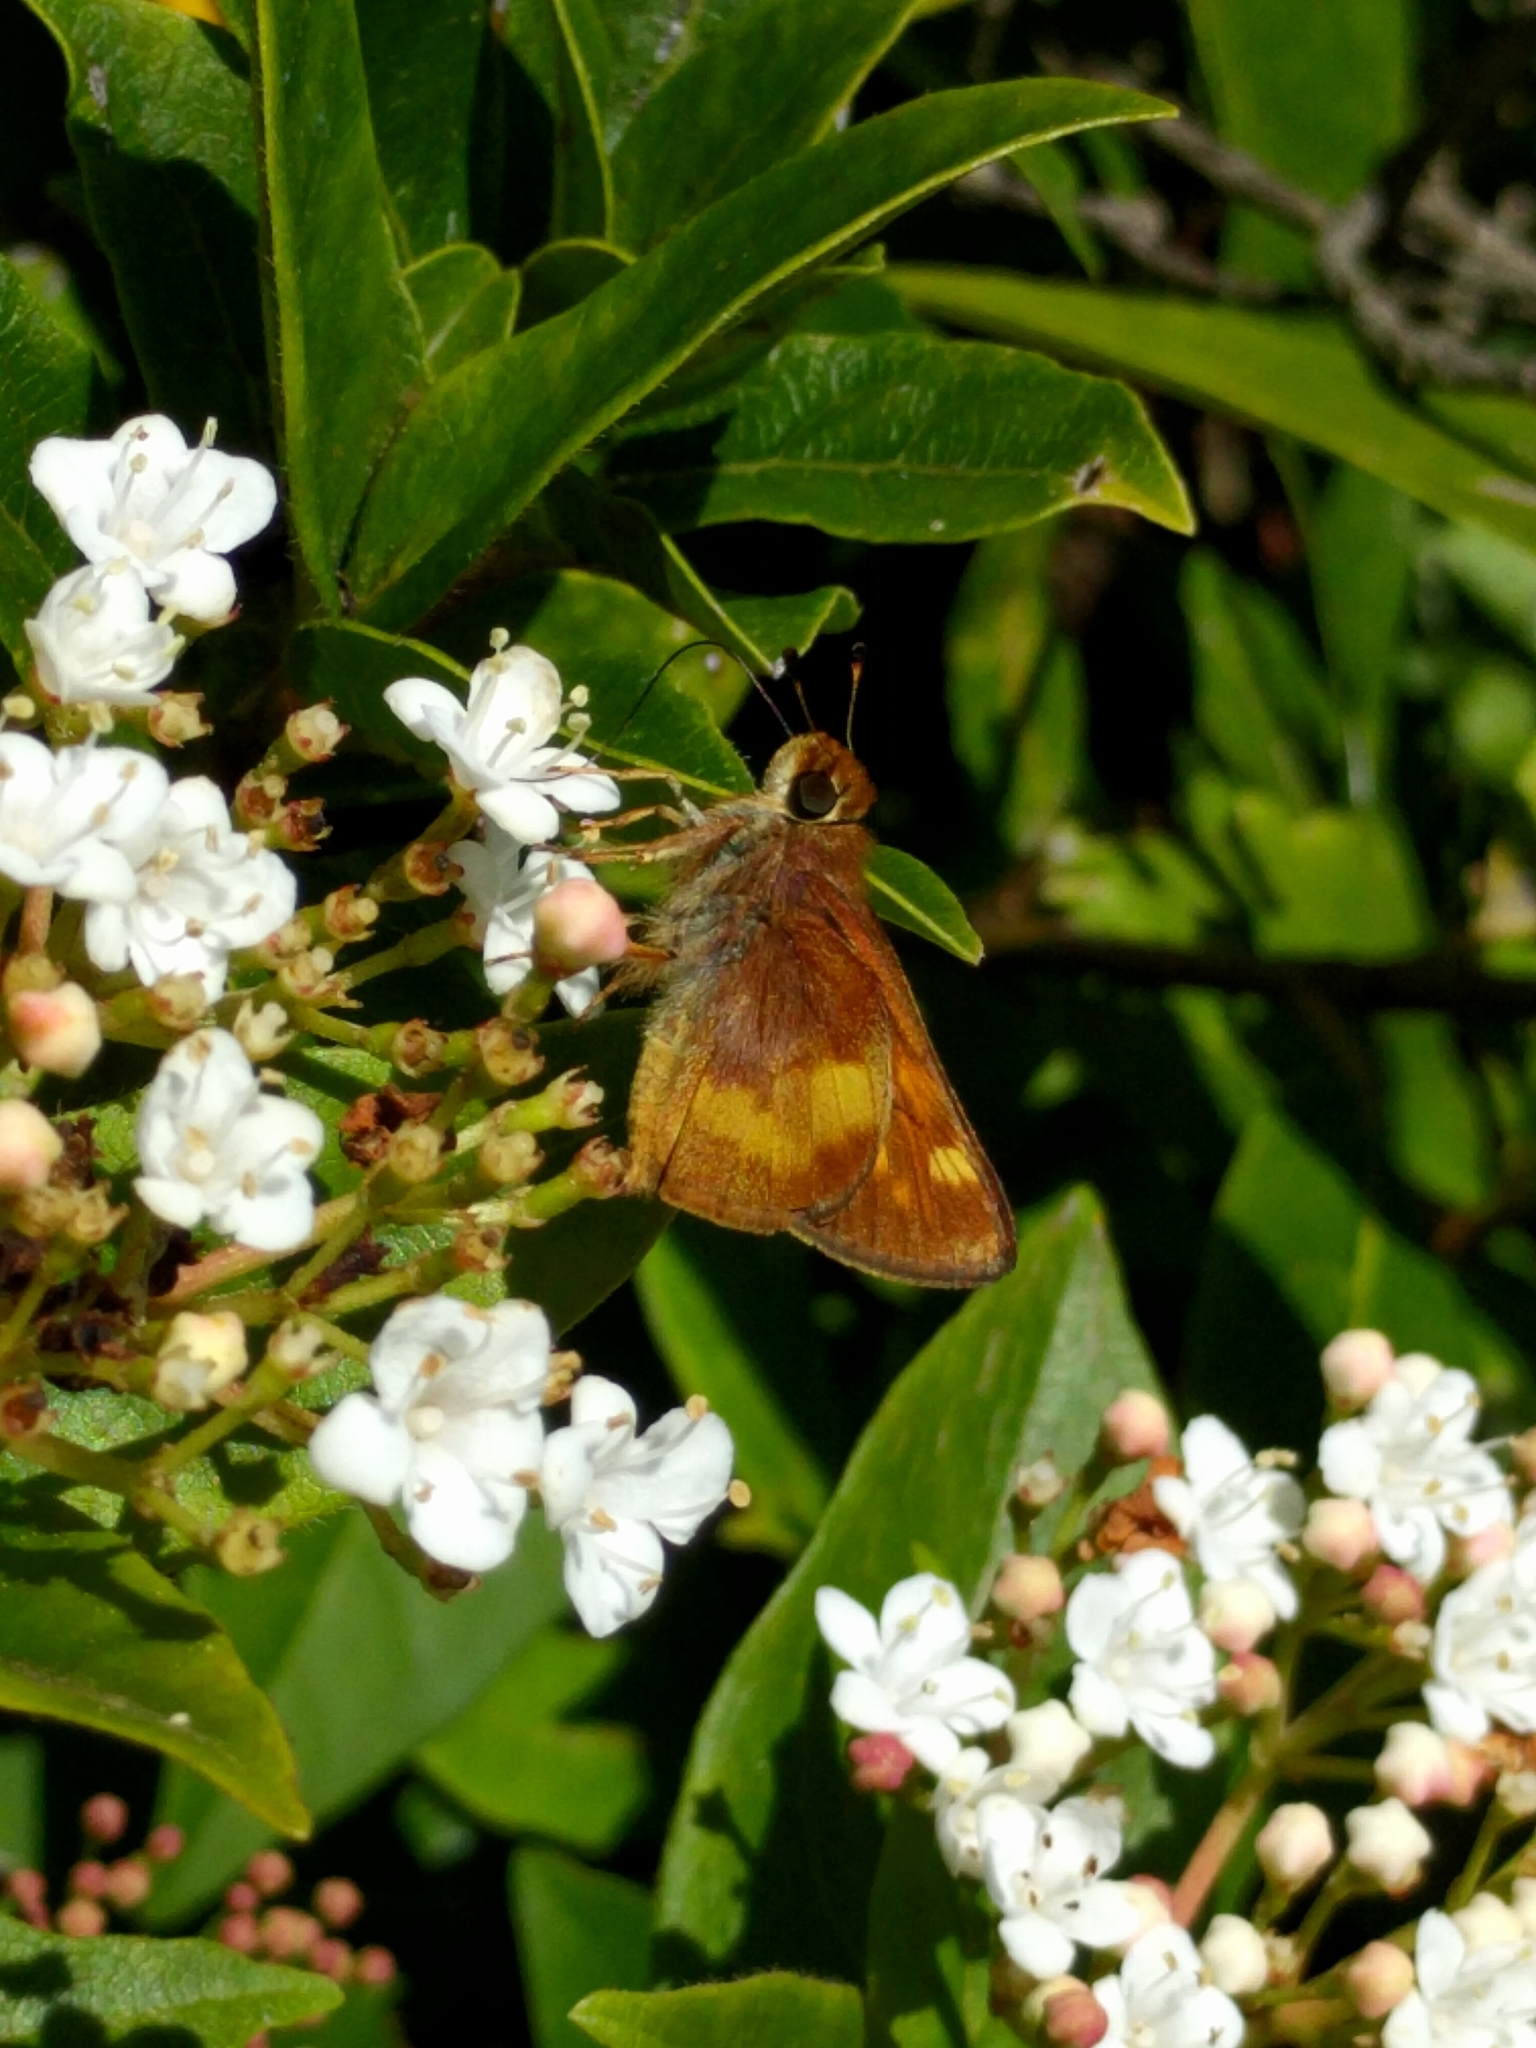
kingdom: Animalia
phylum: Arthropoda
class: Insecta
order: Lepidoptera
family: Hesperiidae
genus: Lon
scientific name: Lon melane
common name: Umber skipper
